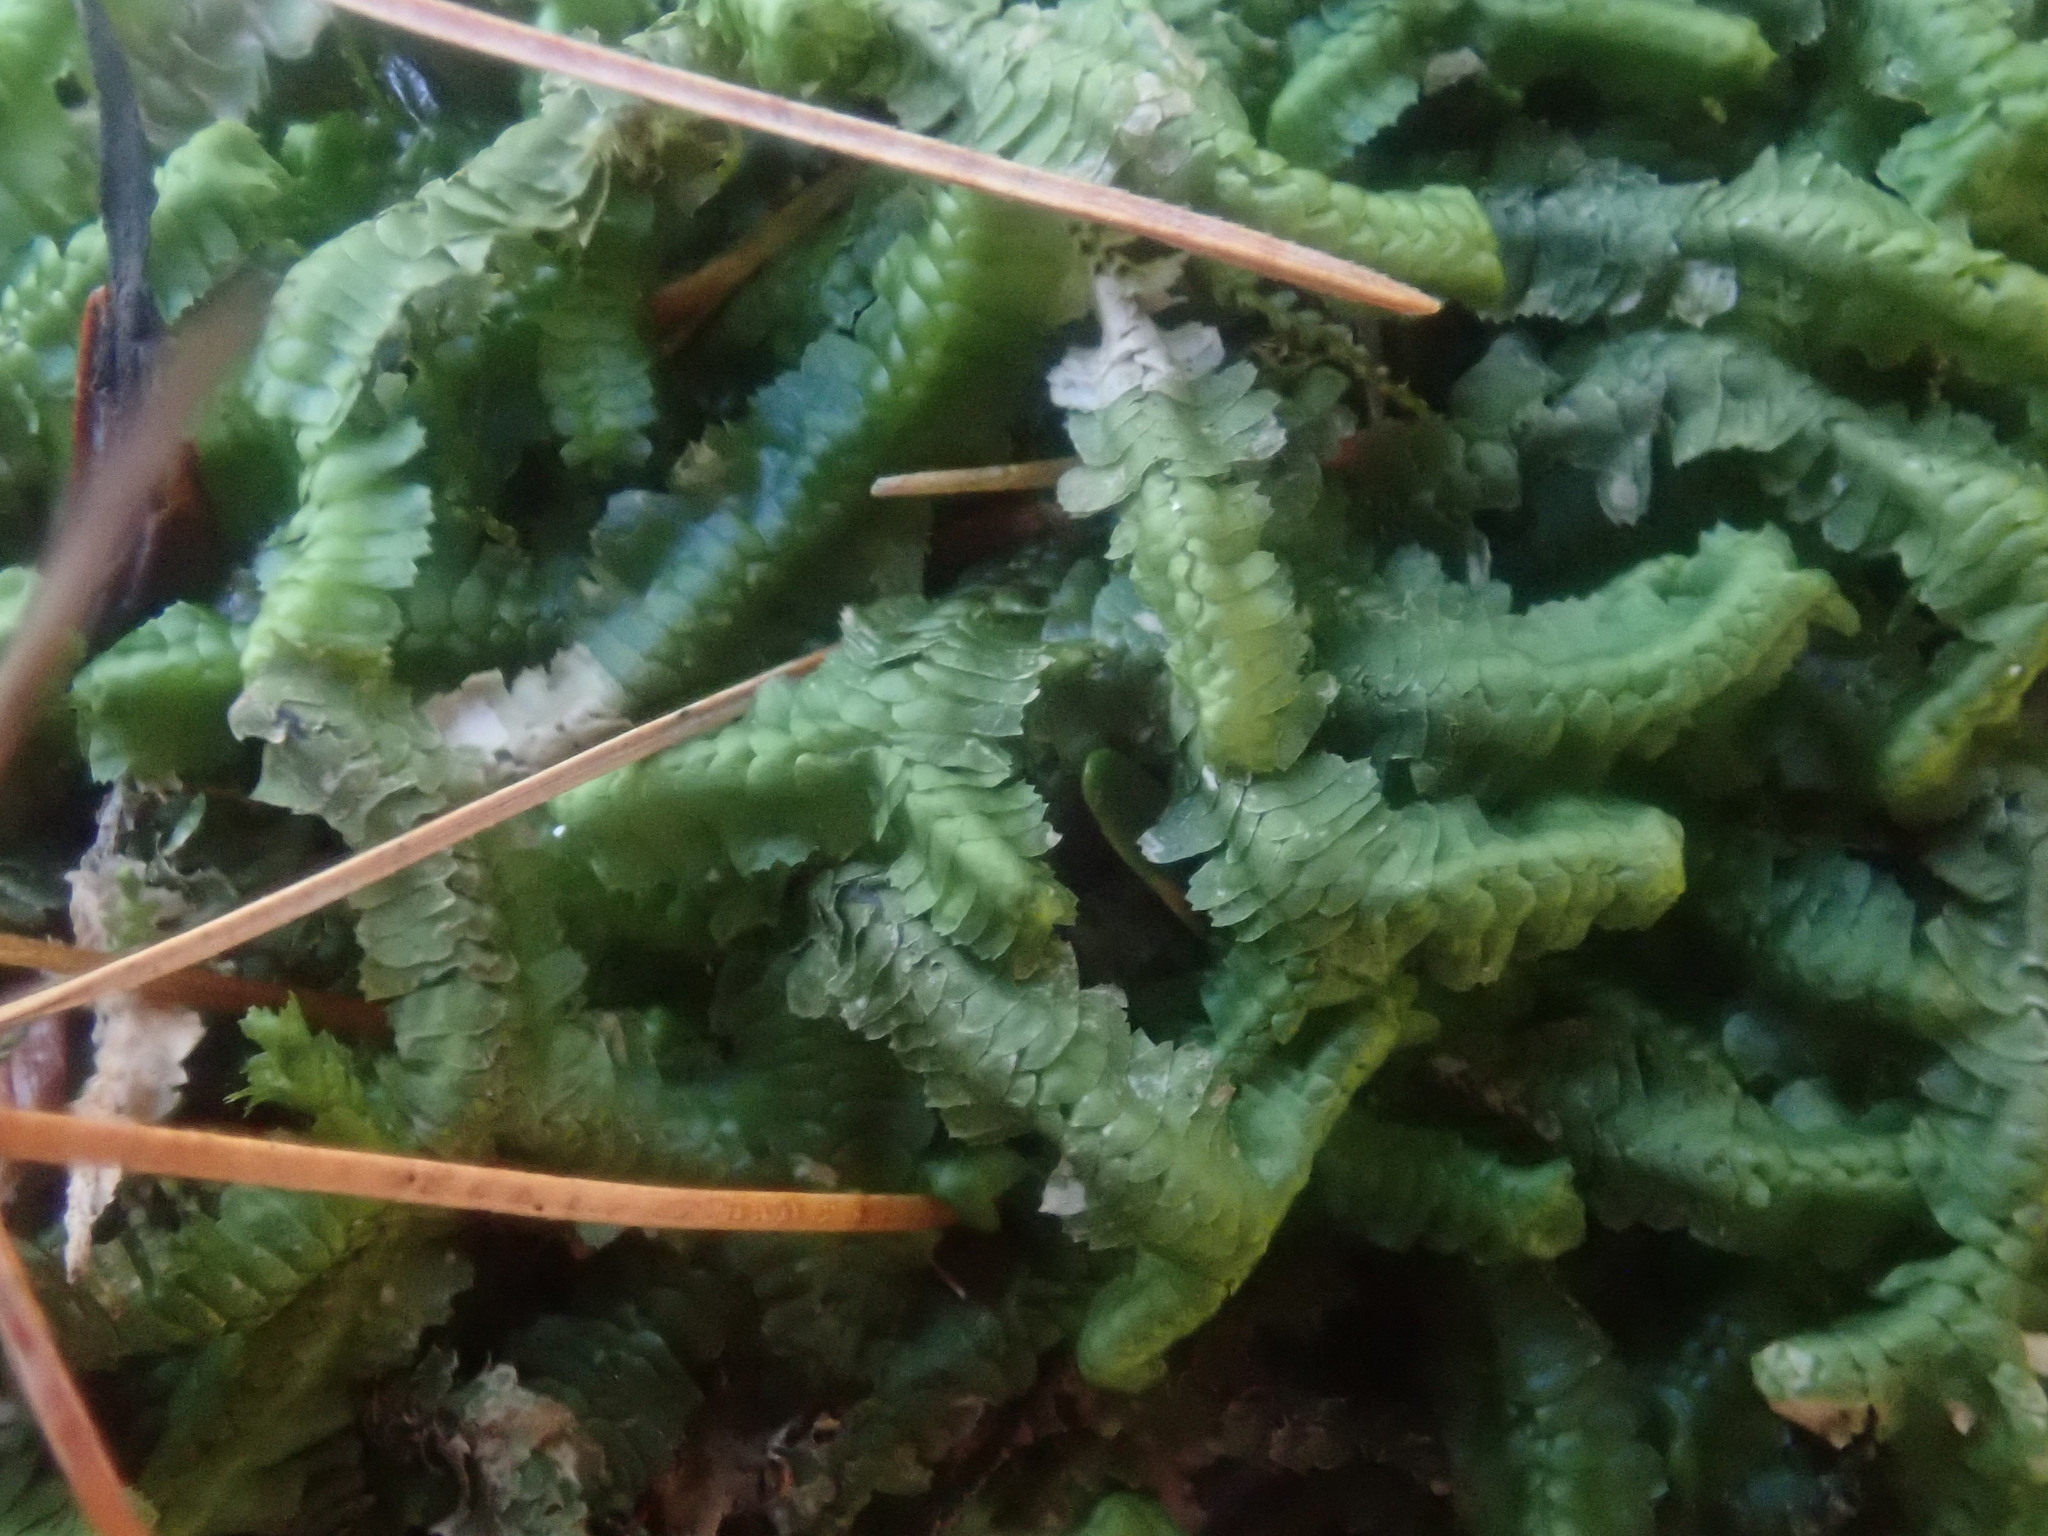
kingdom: Plantae
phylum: Marchantiophyta
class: Jungermanniopsida
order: Jungermanniales
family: Lepidoziaceae
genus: Bazzania
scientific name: Bazzania trilobata
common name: Three-lobed whipwort
